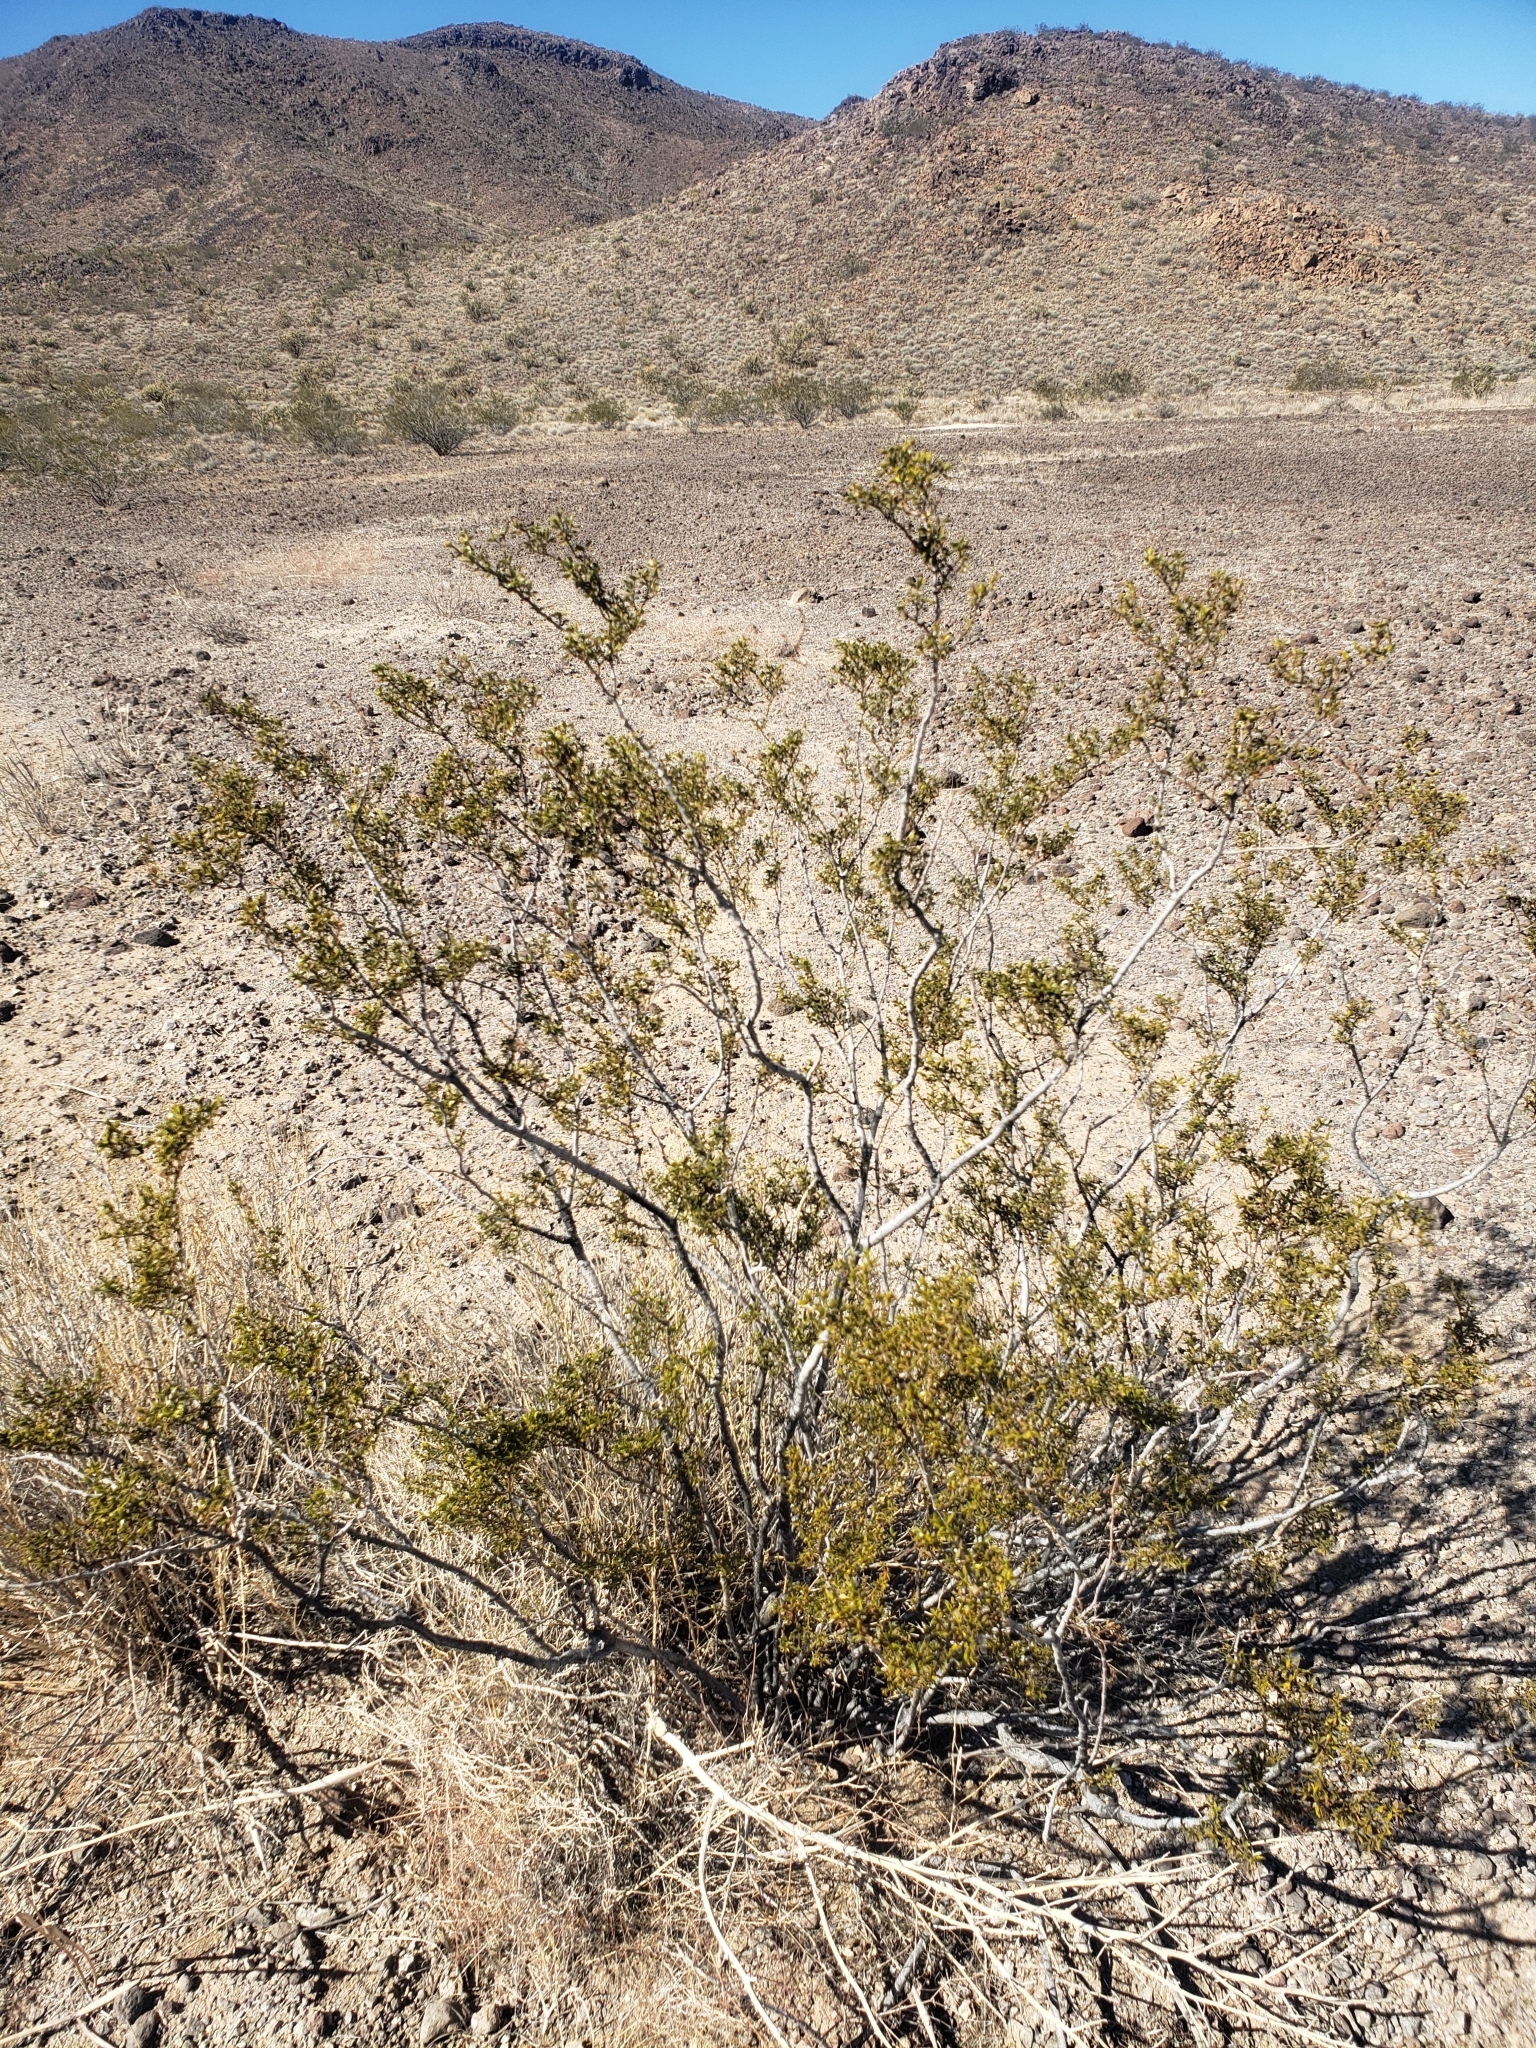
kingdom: Plantae
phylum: Tracheophyta
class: Magnoliopsida
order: Zygophyllales
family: Zygophyllaceae
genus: Larrea
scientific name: Larrea tridentata
